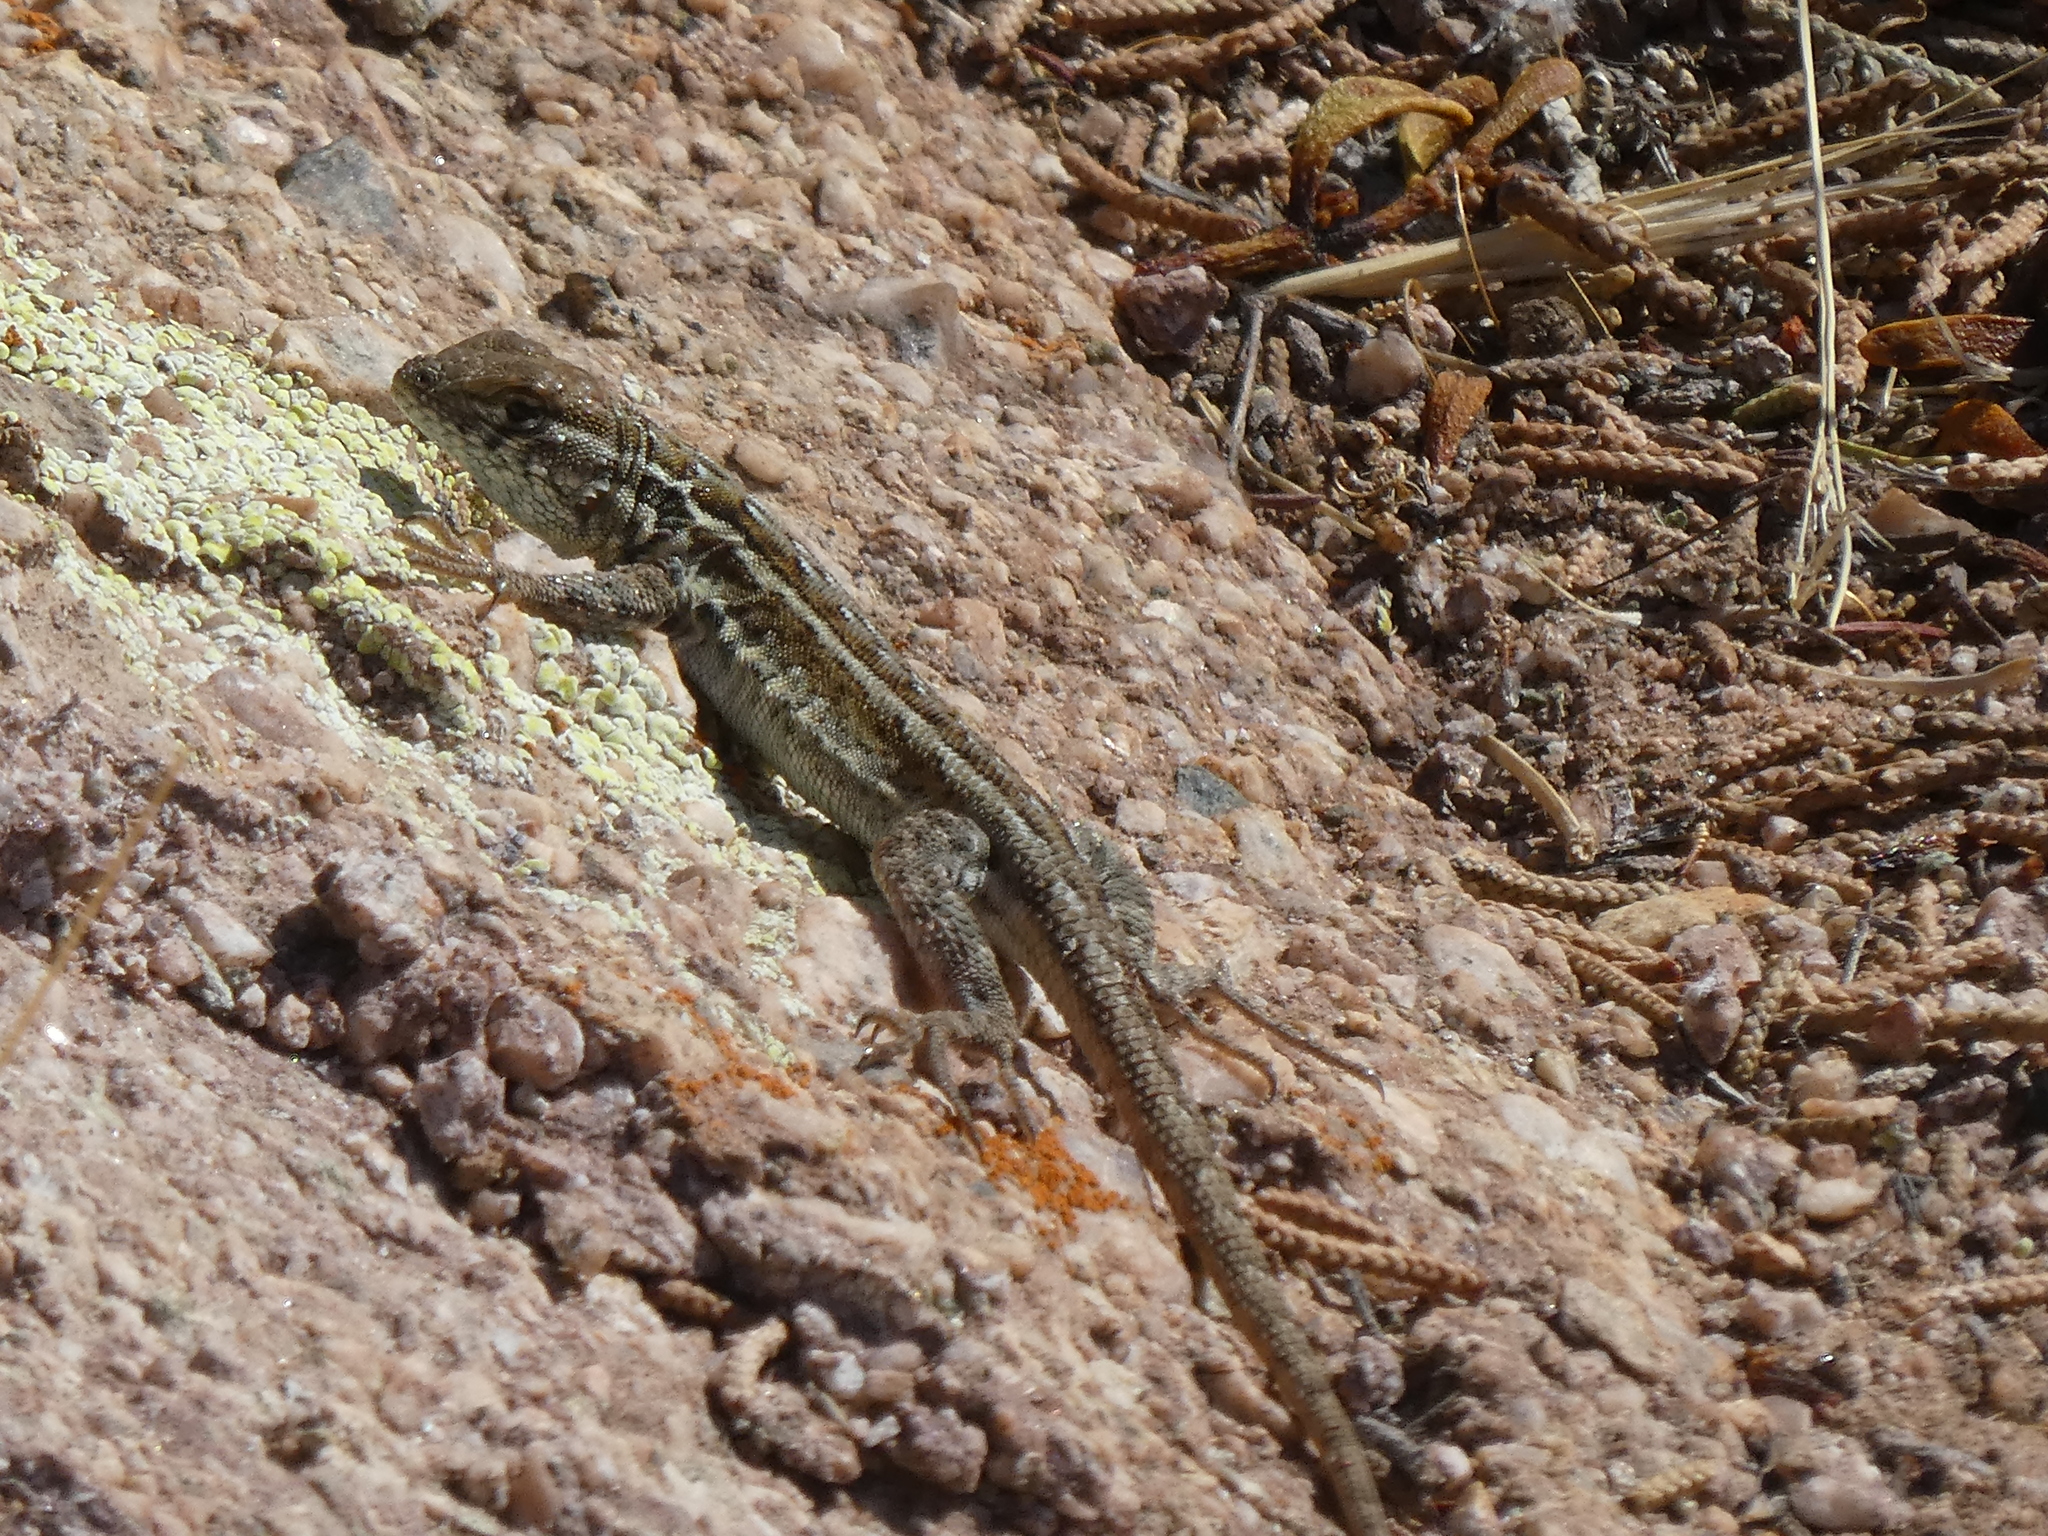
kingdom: Animalia
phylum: Chordata
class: Squamata
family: Phrynosomatidae
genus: Uta
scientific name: Uta stansburiana
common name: Side-blotched lizard
